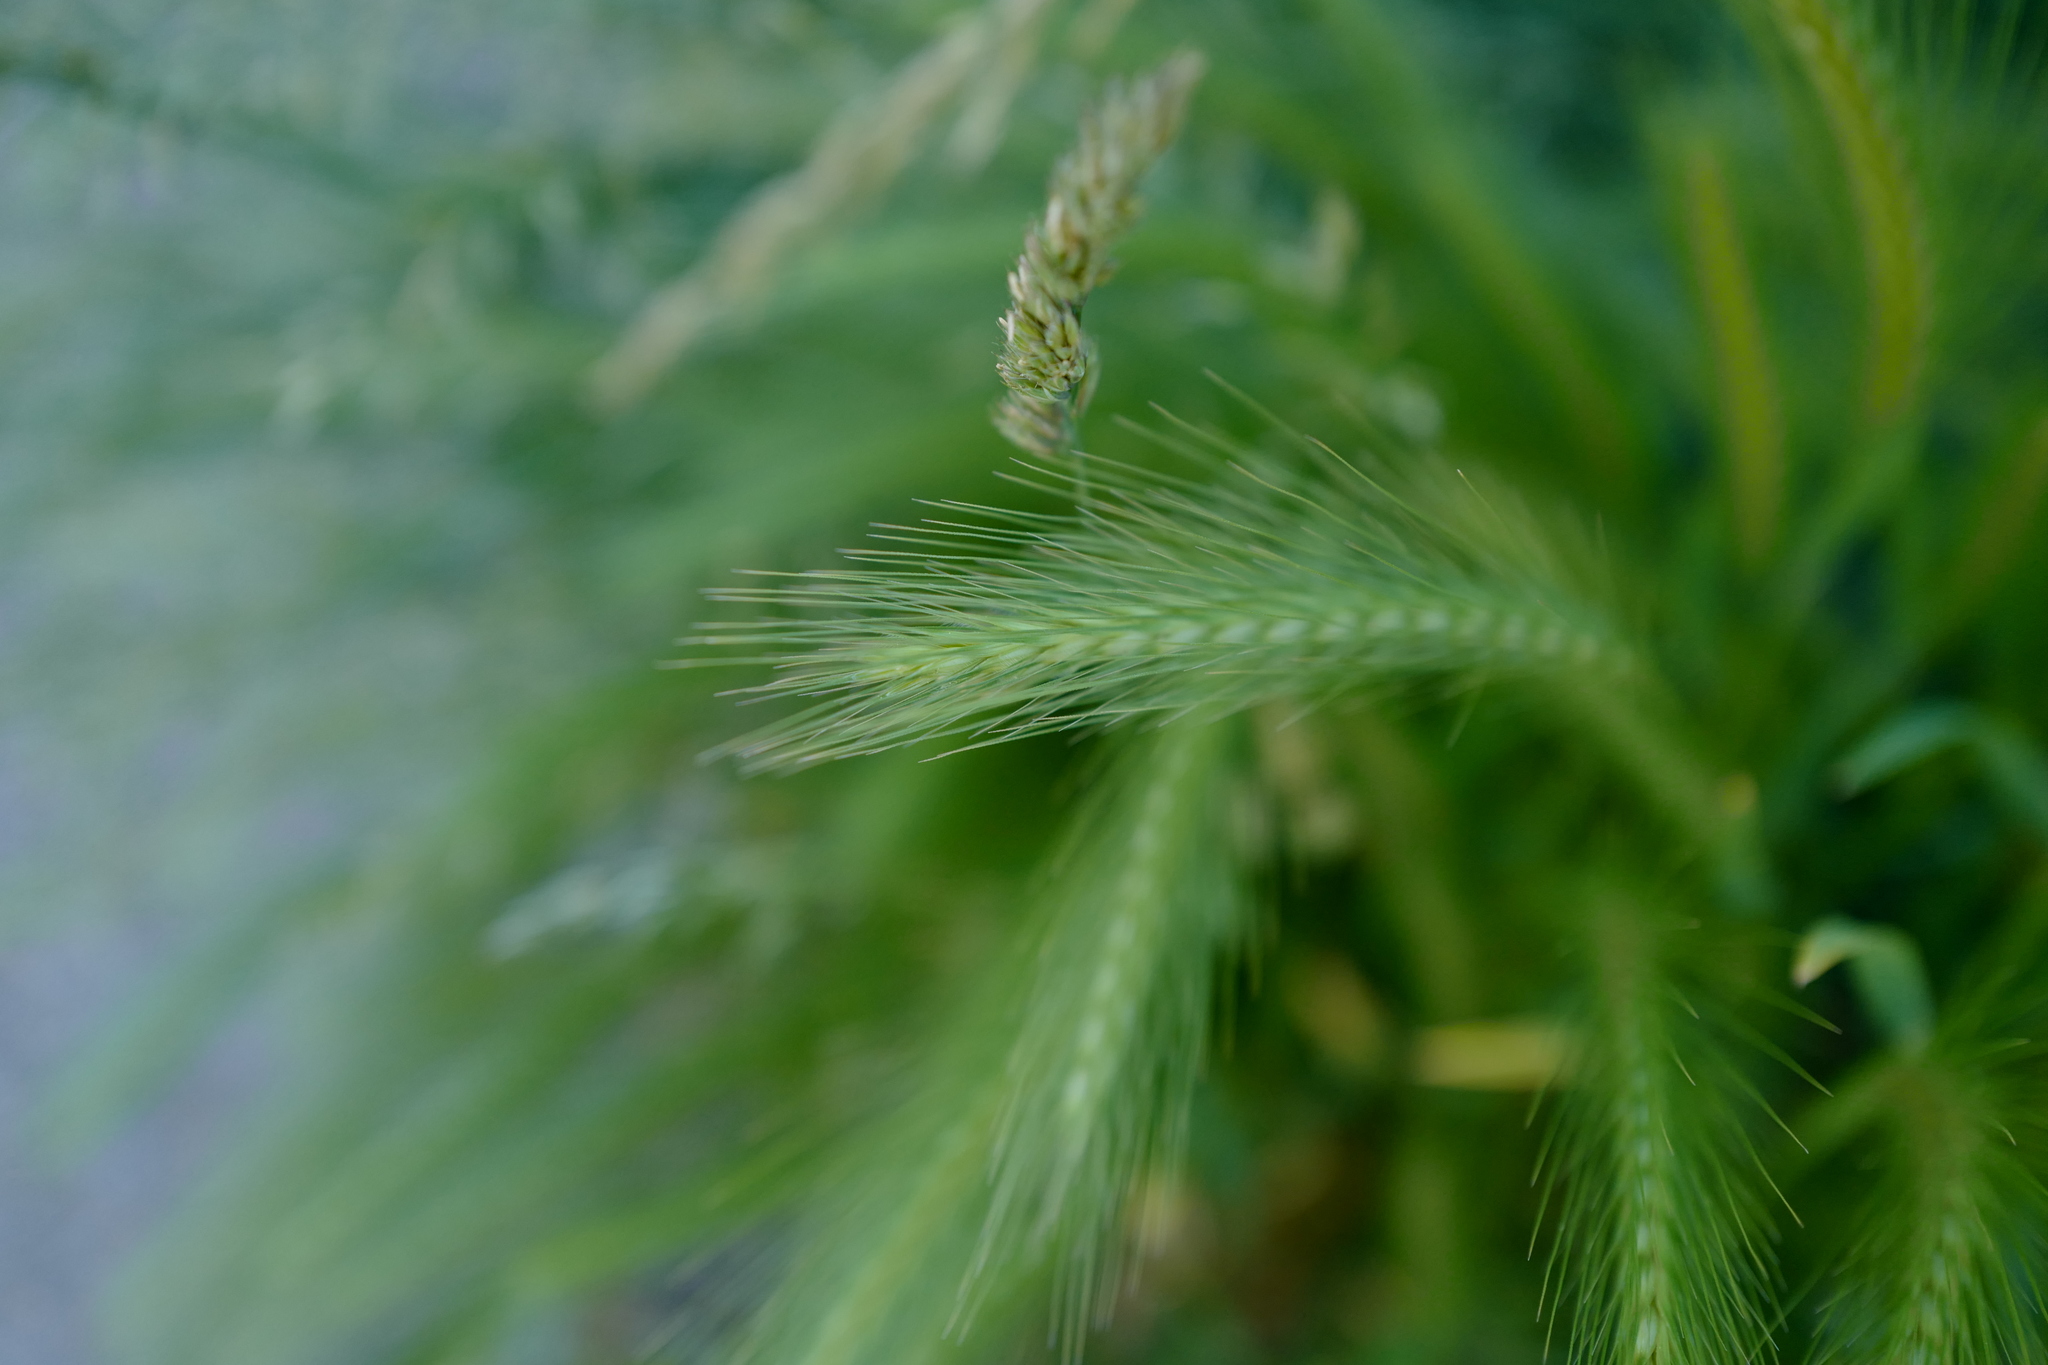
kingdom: Plantae
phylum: Tracheophyta
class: Liliopsida
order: Poales
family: Poaceae
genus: Hordeum
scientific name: Hordeum murinum
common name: Wall barley
